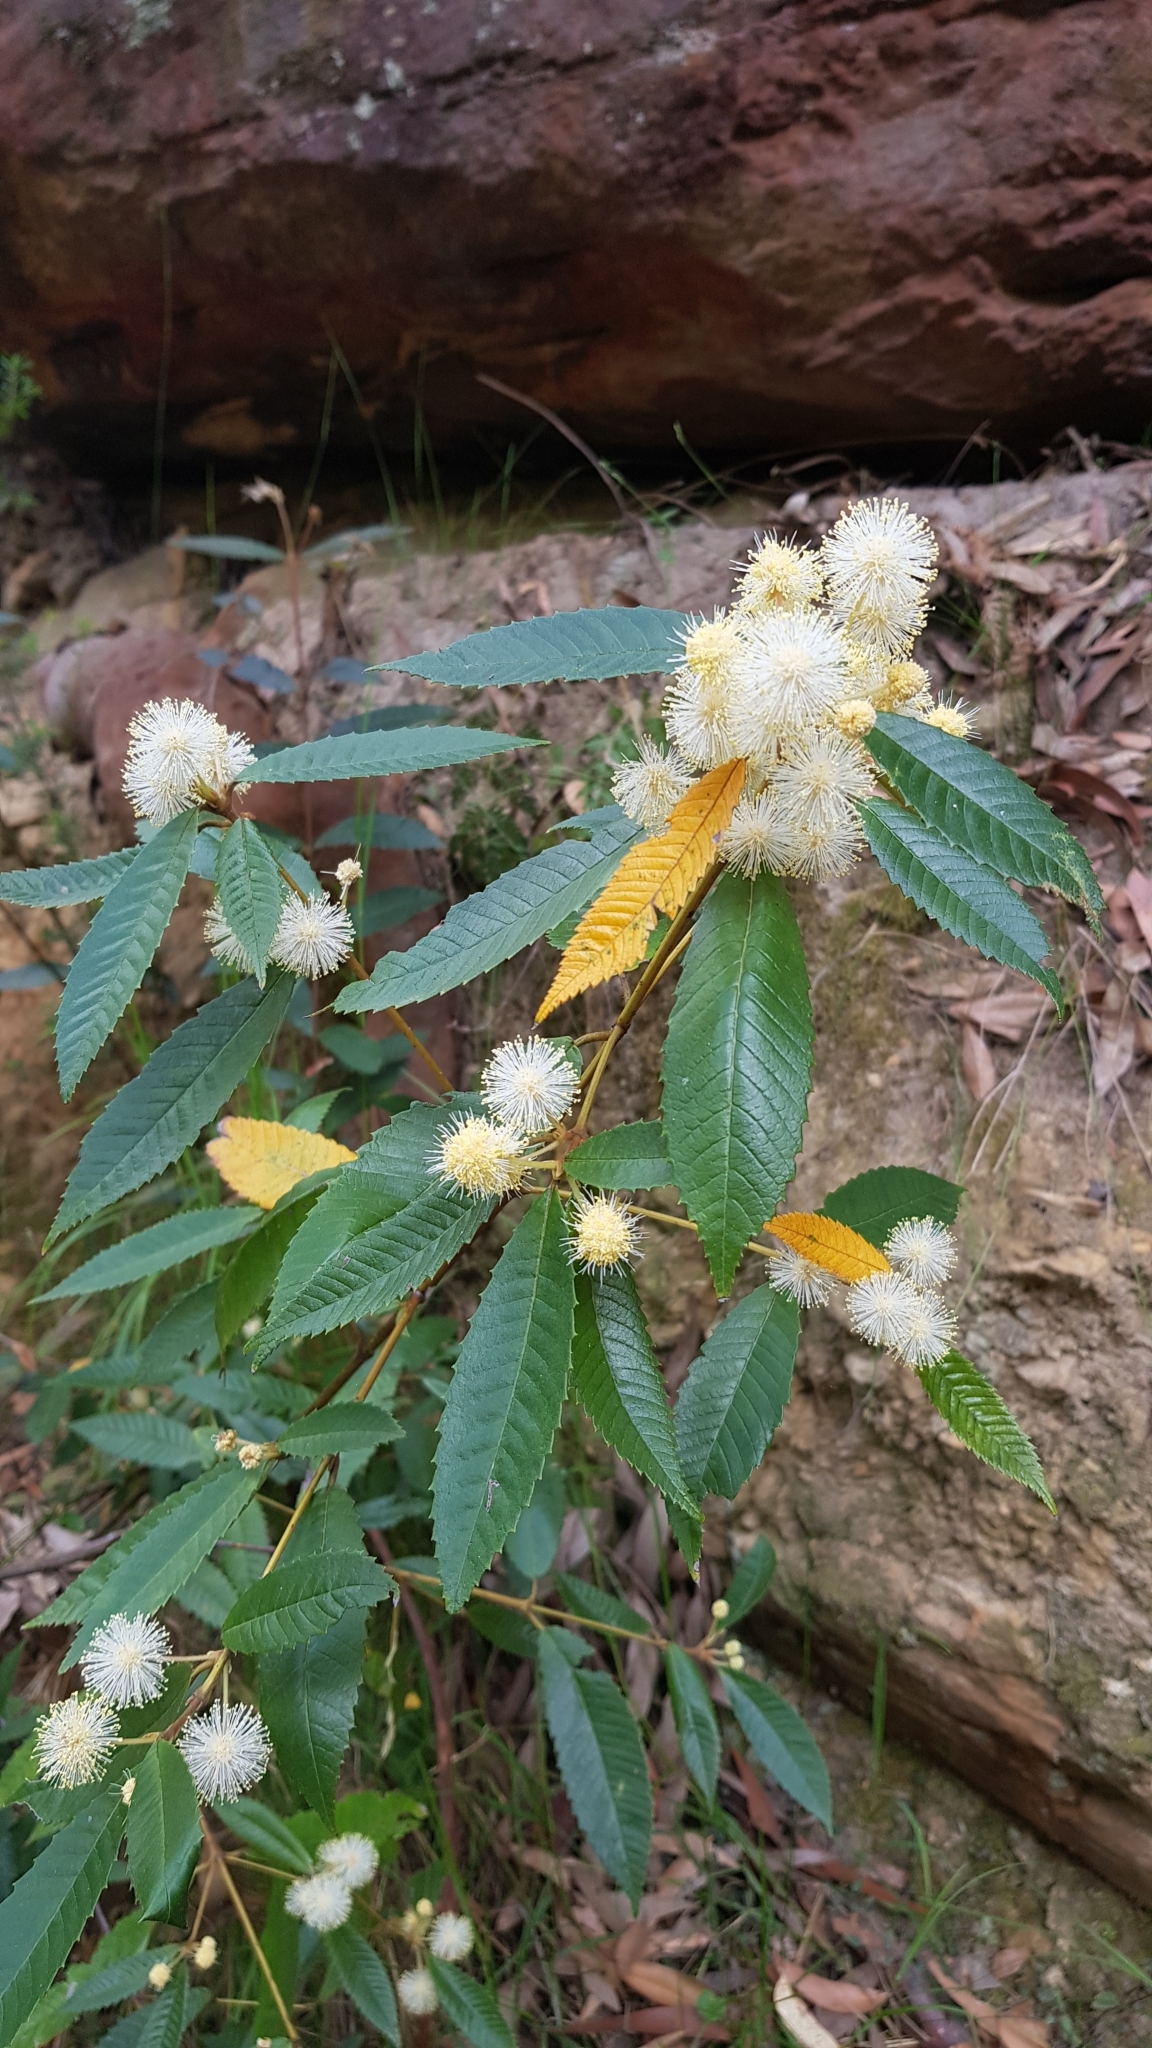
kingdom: Plantae
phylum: Tracheophyta
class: Magnoliopsida
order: Oxalidales
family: Cunoniaceae
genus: Callicoma
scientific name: Callicoma serratifolia
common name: Black wattle
